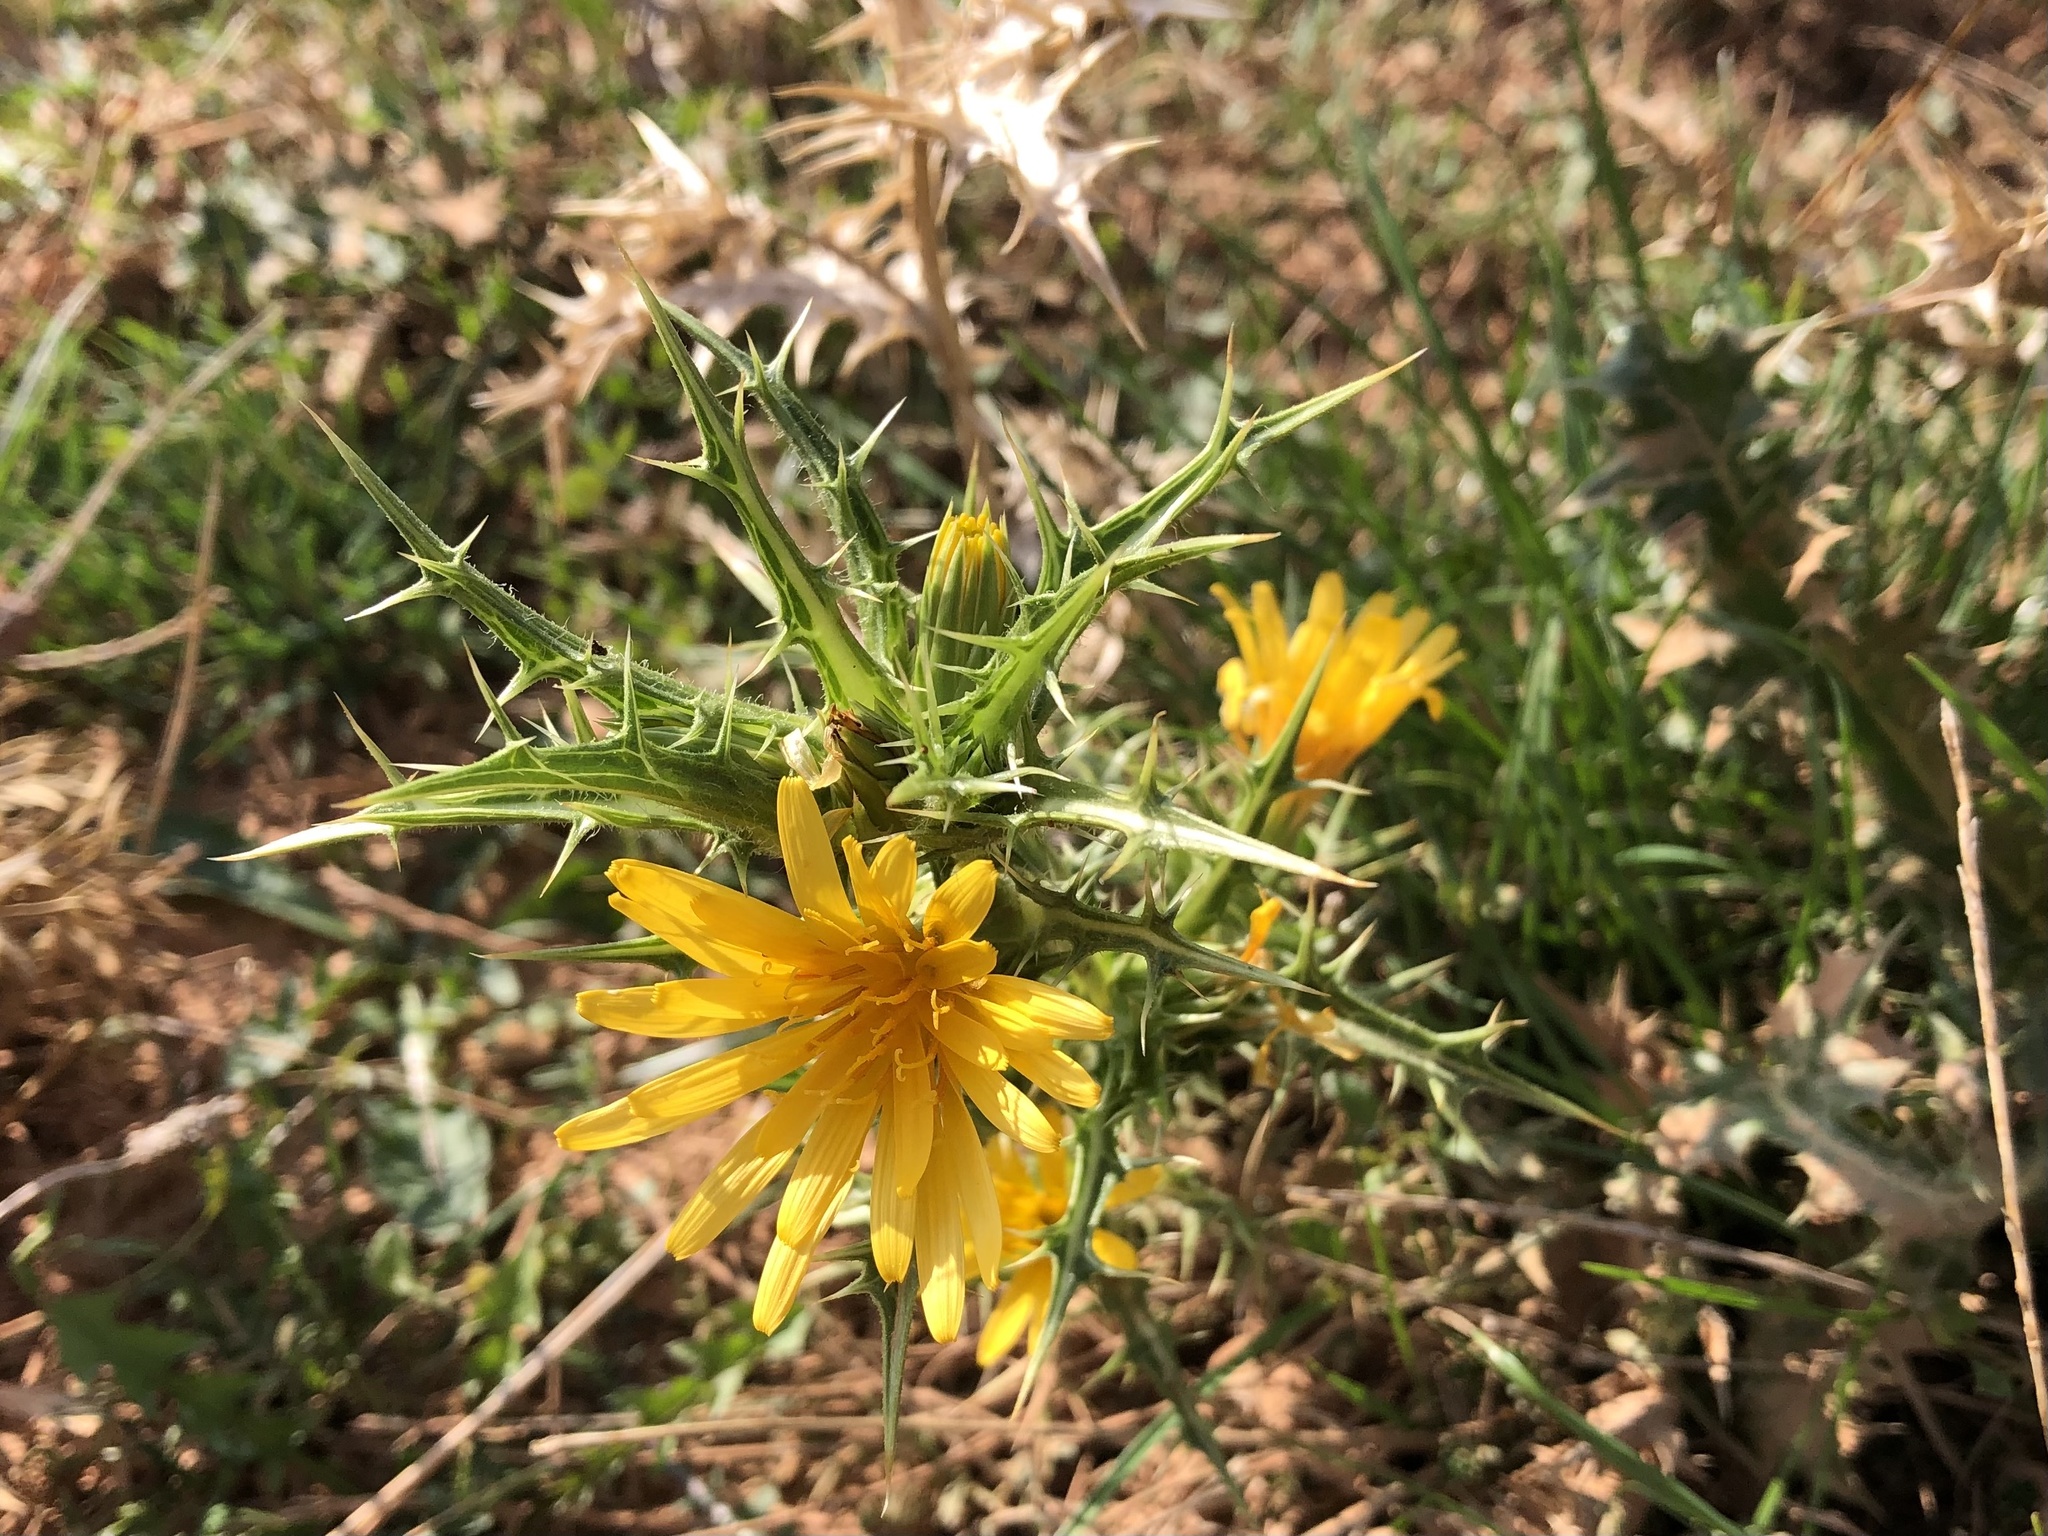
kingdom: Plantae
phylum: Tracheophyta
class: Magnoliopsida
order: Asterales
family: Asteraceae
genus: Scolymus
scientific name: Scolymus hispanicus
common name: Golden thistle
